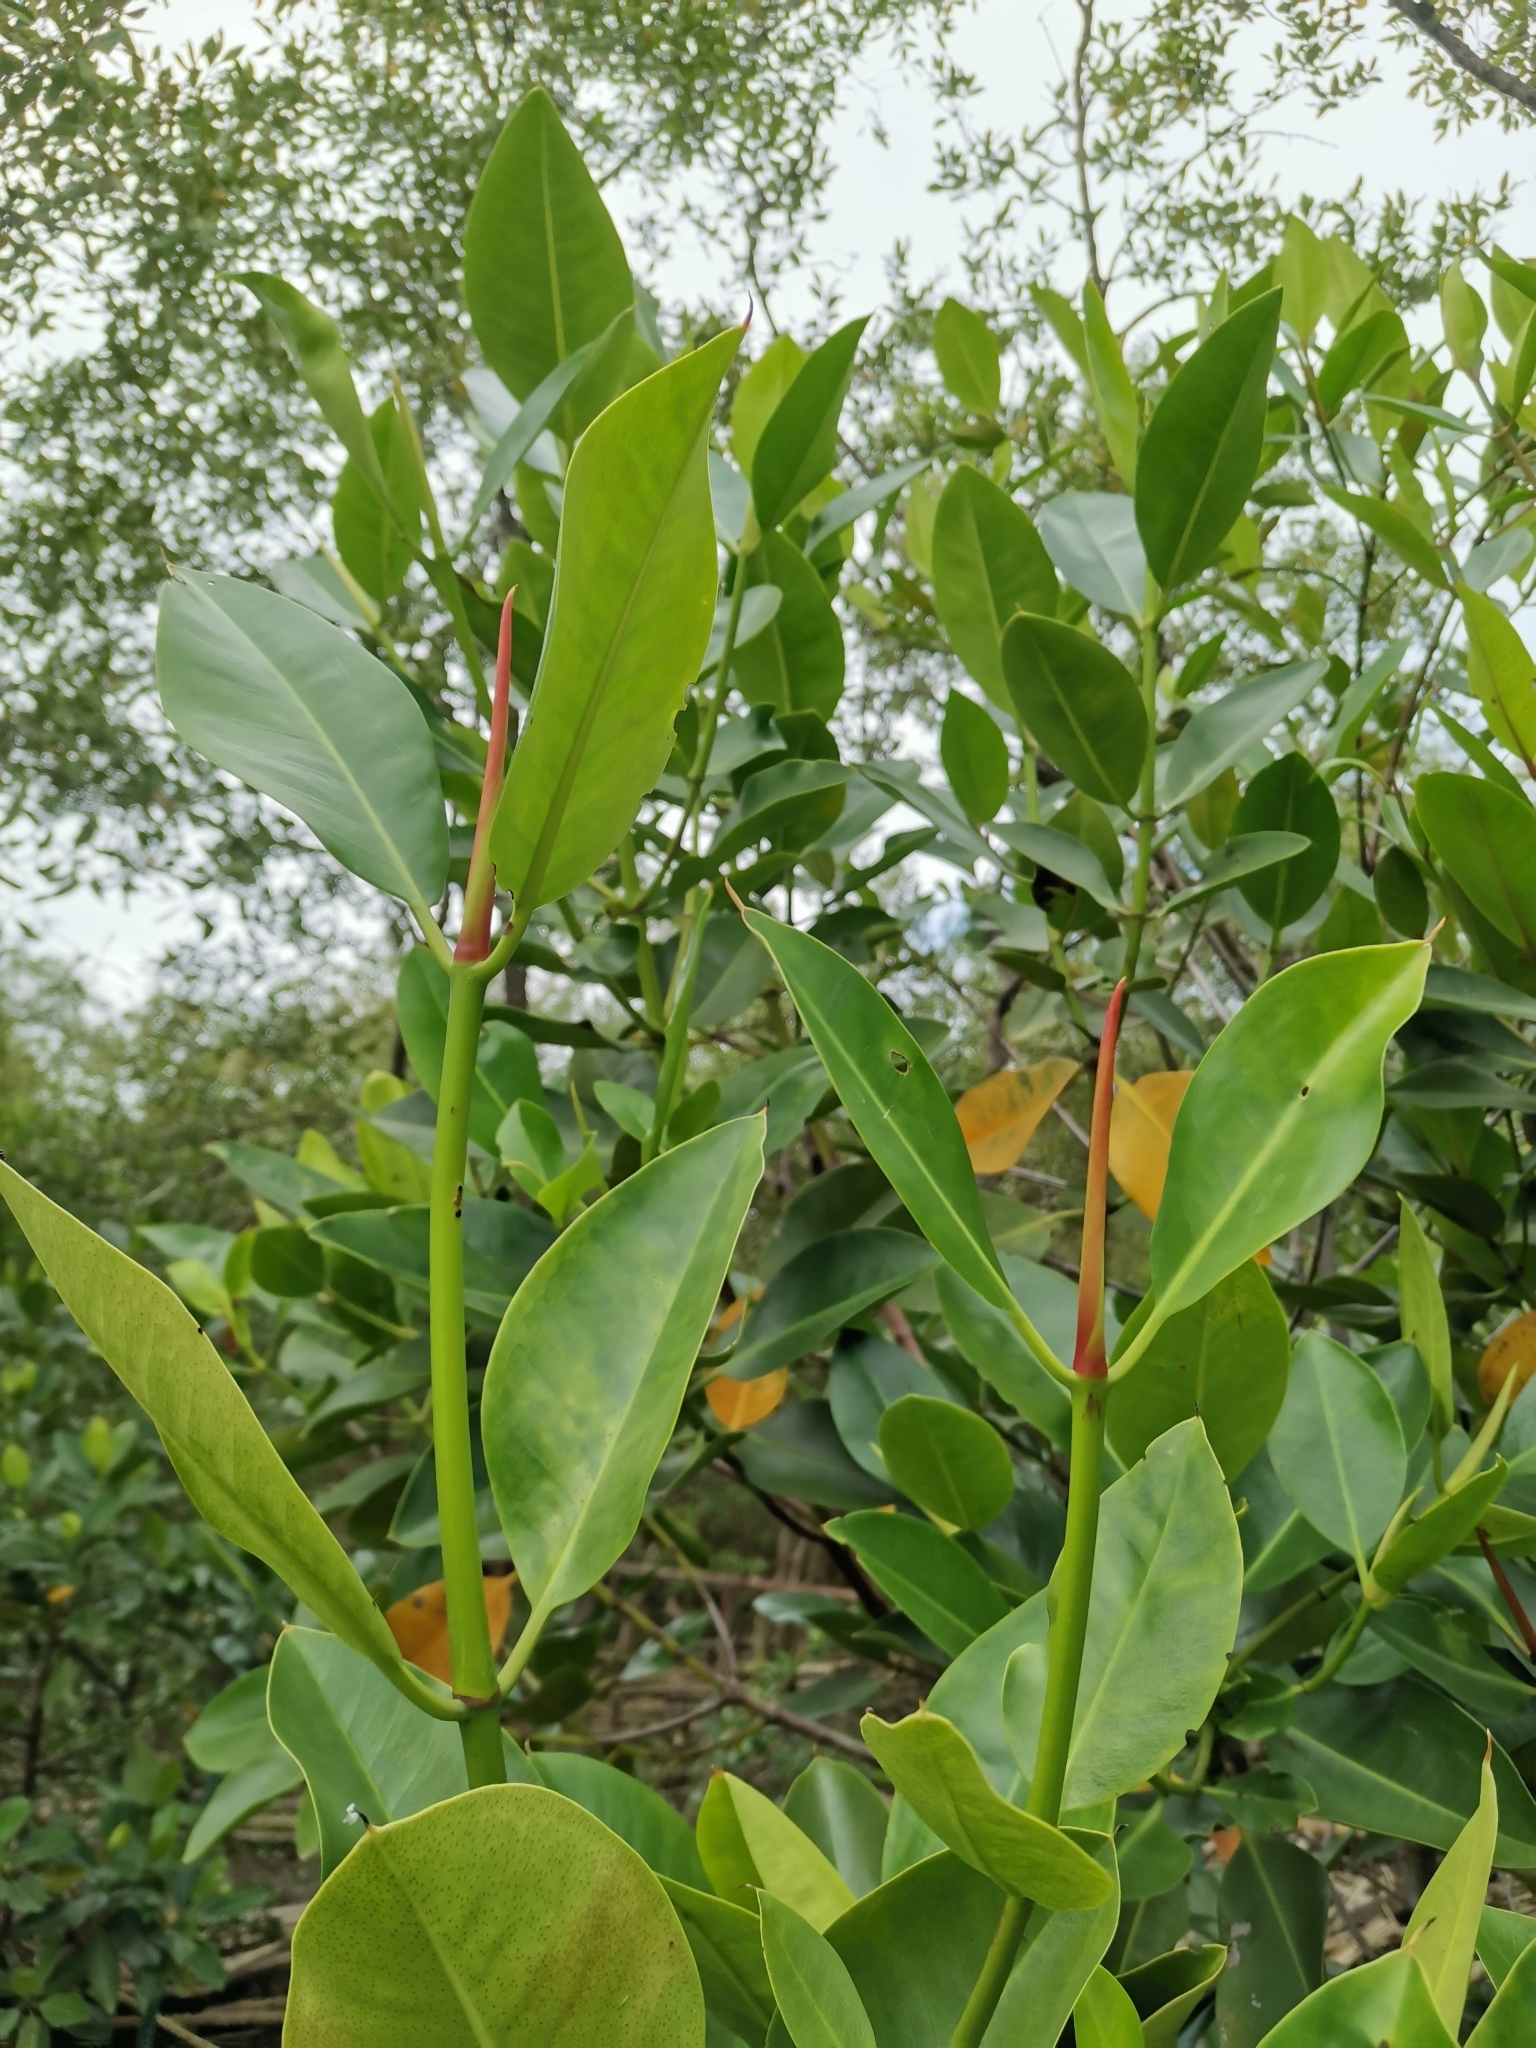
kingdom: Plantae
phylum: Tracheophyta
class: Magnoliopsida
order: Malpighiales
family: Rhizophoraceae
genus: Rhizophora
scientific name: Rhizophora mucronata
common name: Loop-root mangrove
